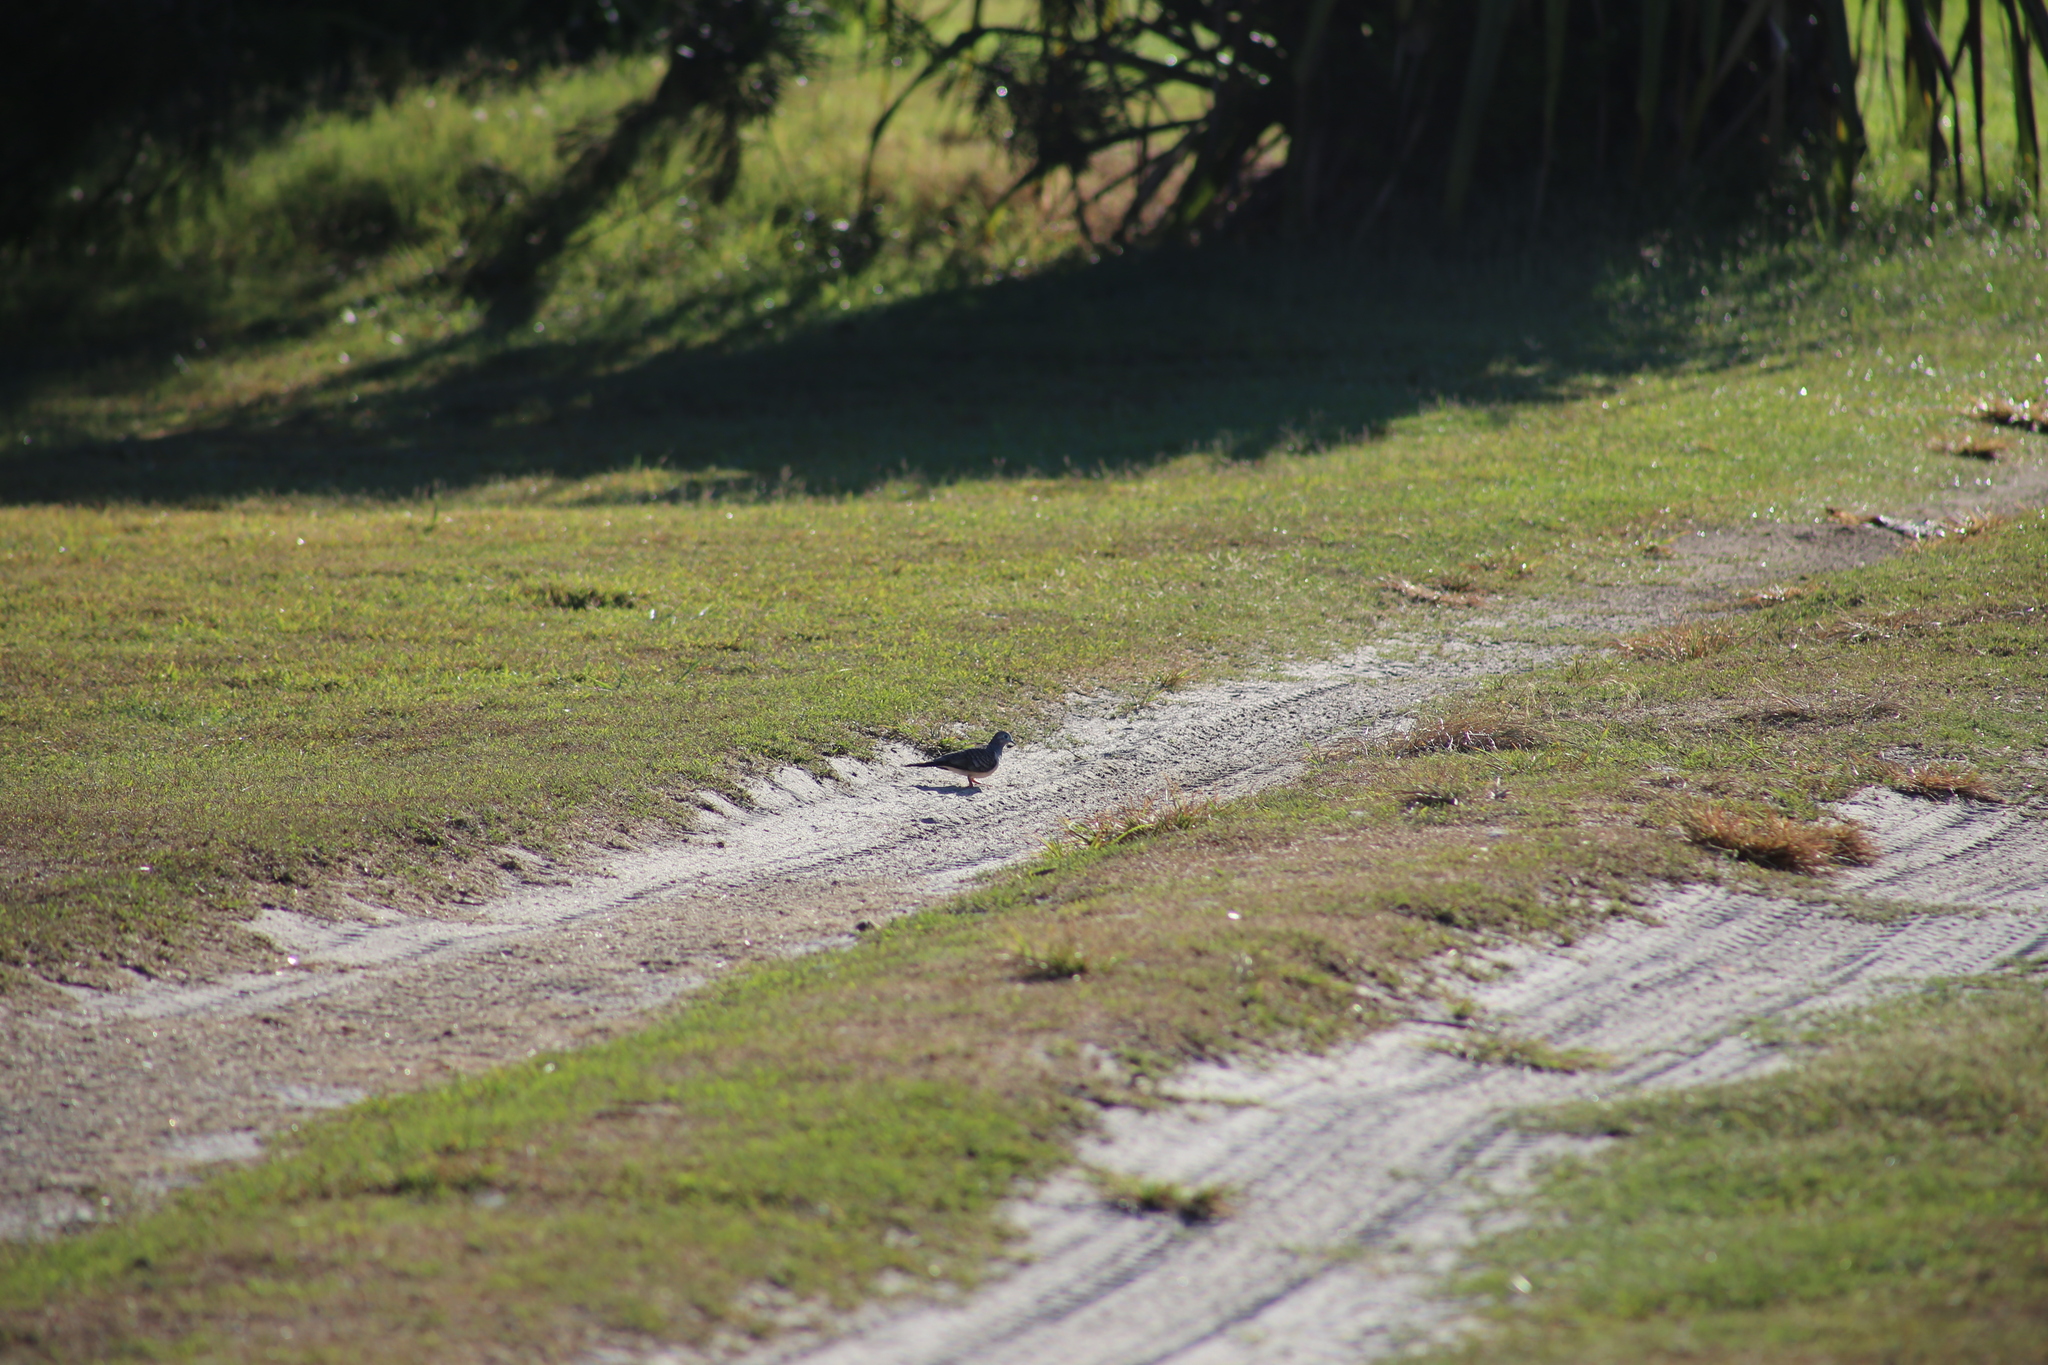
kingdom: Animalia
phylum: Chordata
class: Aves
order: Columbiformes
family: Columbidae
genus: Geopelia
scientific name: Geopelia humeralis
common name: Bar-shouldered dove
